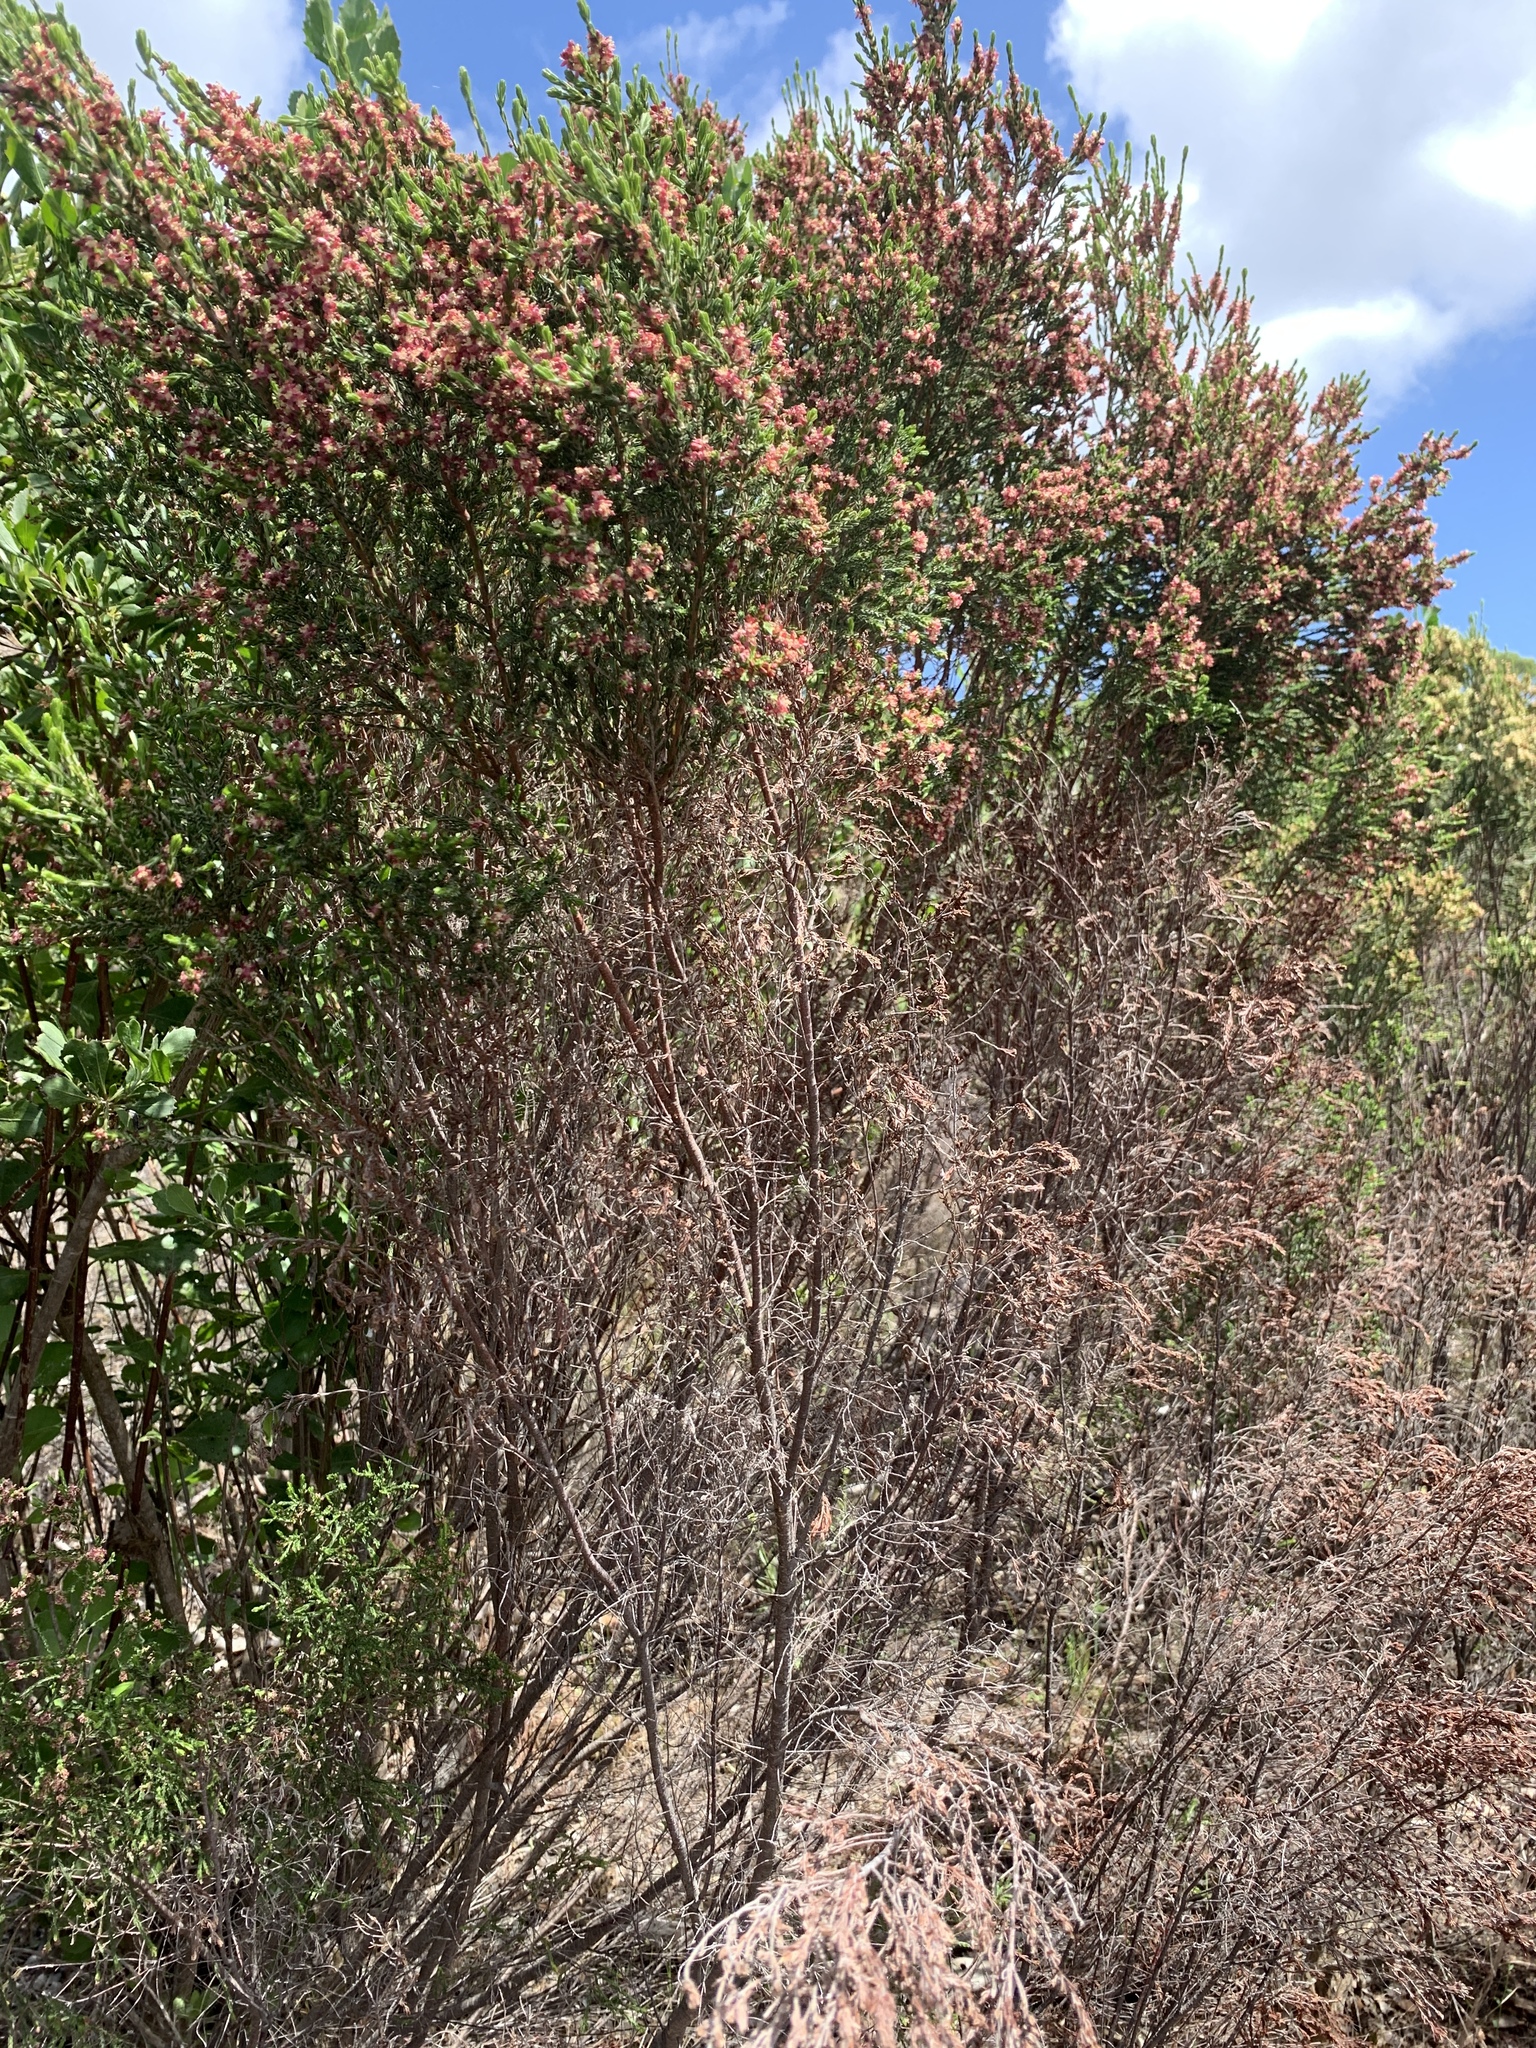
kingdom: Plantae
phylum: Tracheophyta
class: Magnoliopsida
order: Malvales
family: Thymelaeaceae
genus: Passerina
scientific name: Passerina corymbosa
